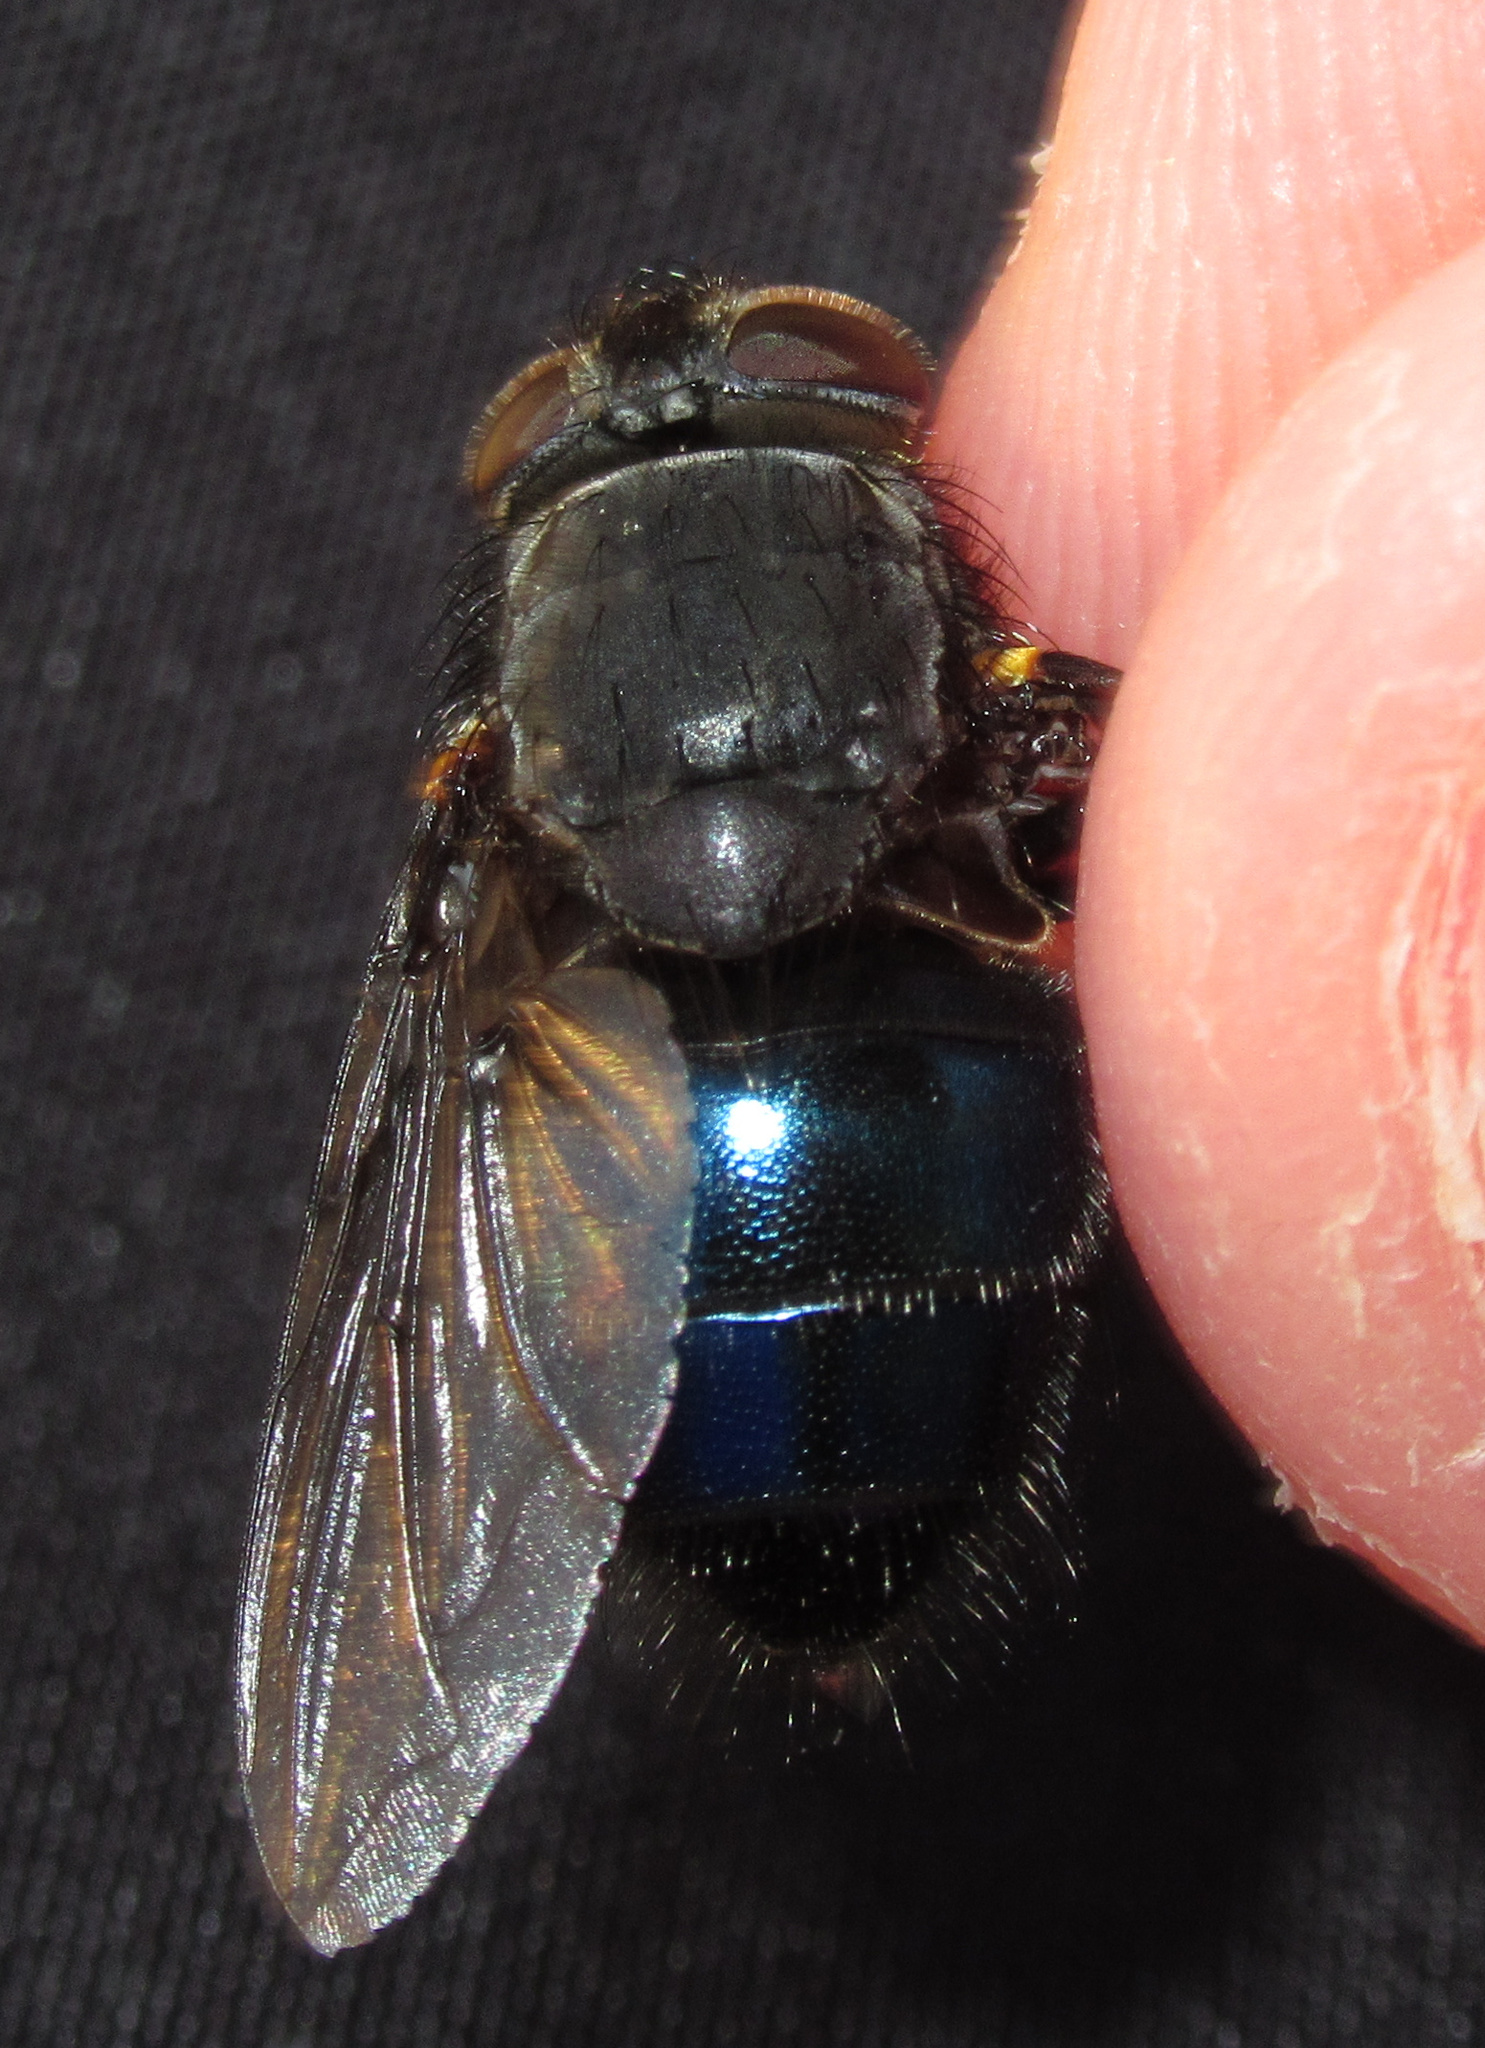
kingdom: Animalia
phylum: Arthropoda
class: Insecta
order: Diptera
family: Calliphoridae
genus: Calliphora
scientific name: Calliphora quadrimaculata
